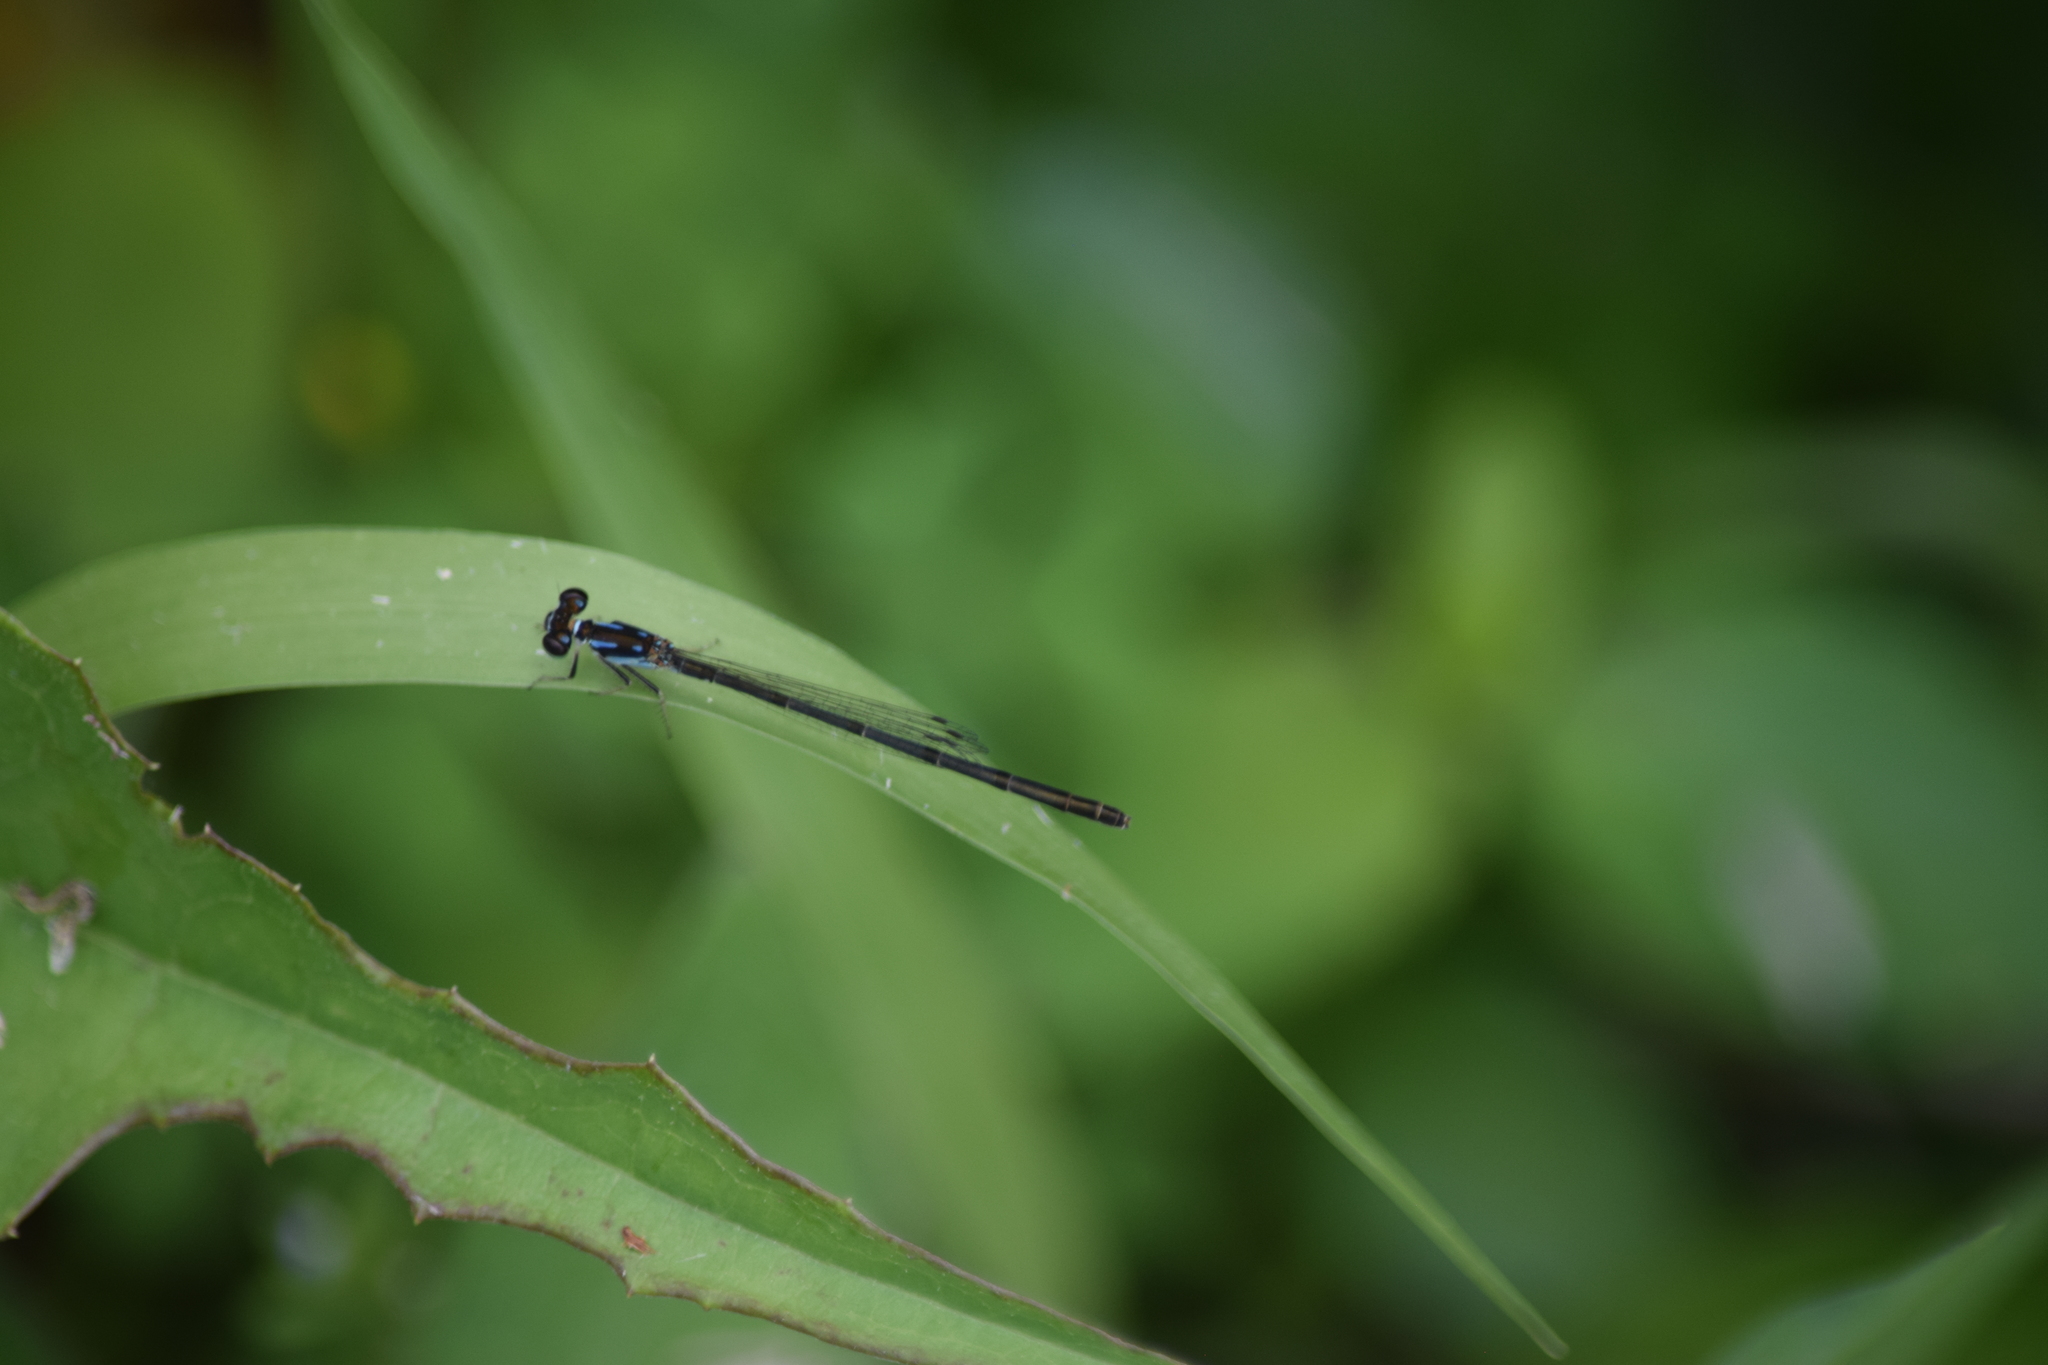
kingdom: Animalia
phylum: Arthropoda
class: Insecta
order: Odonata
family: Coenagrionidae
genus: Ischnura
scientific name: Ischnura posita
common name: Fragile forktail
